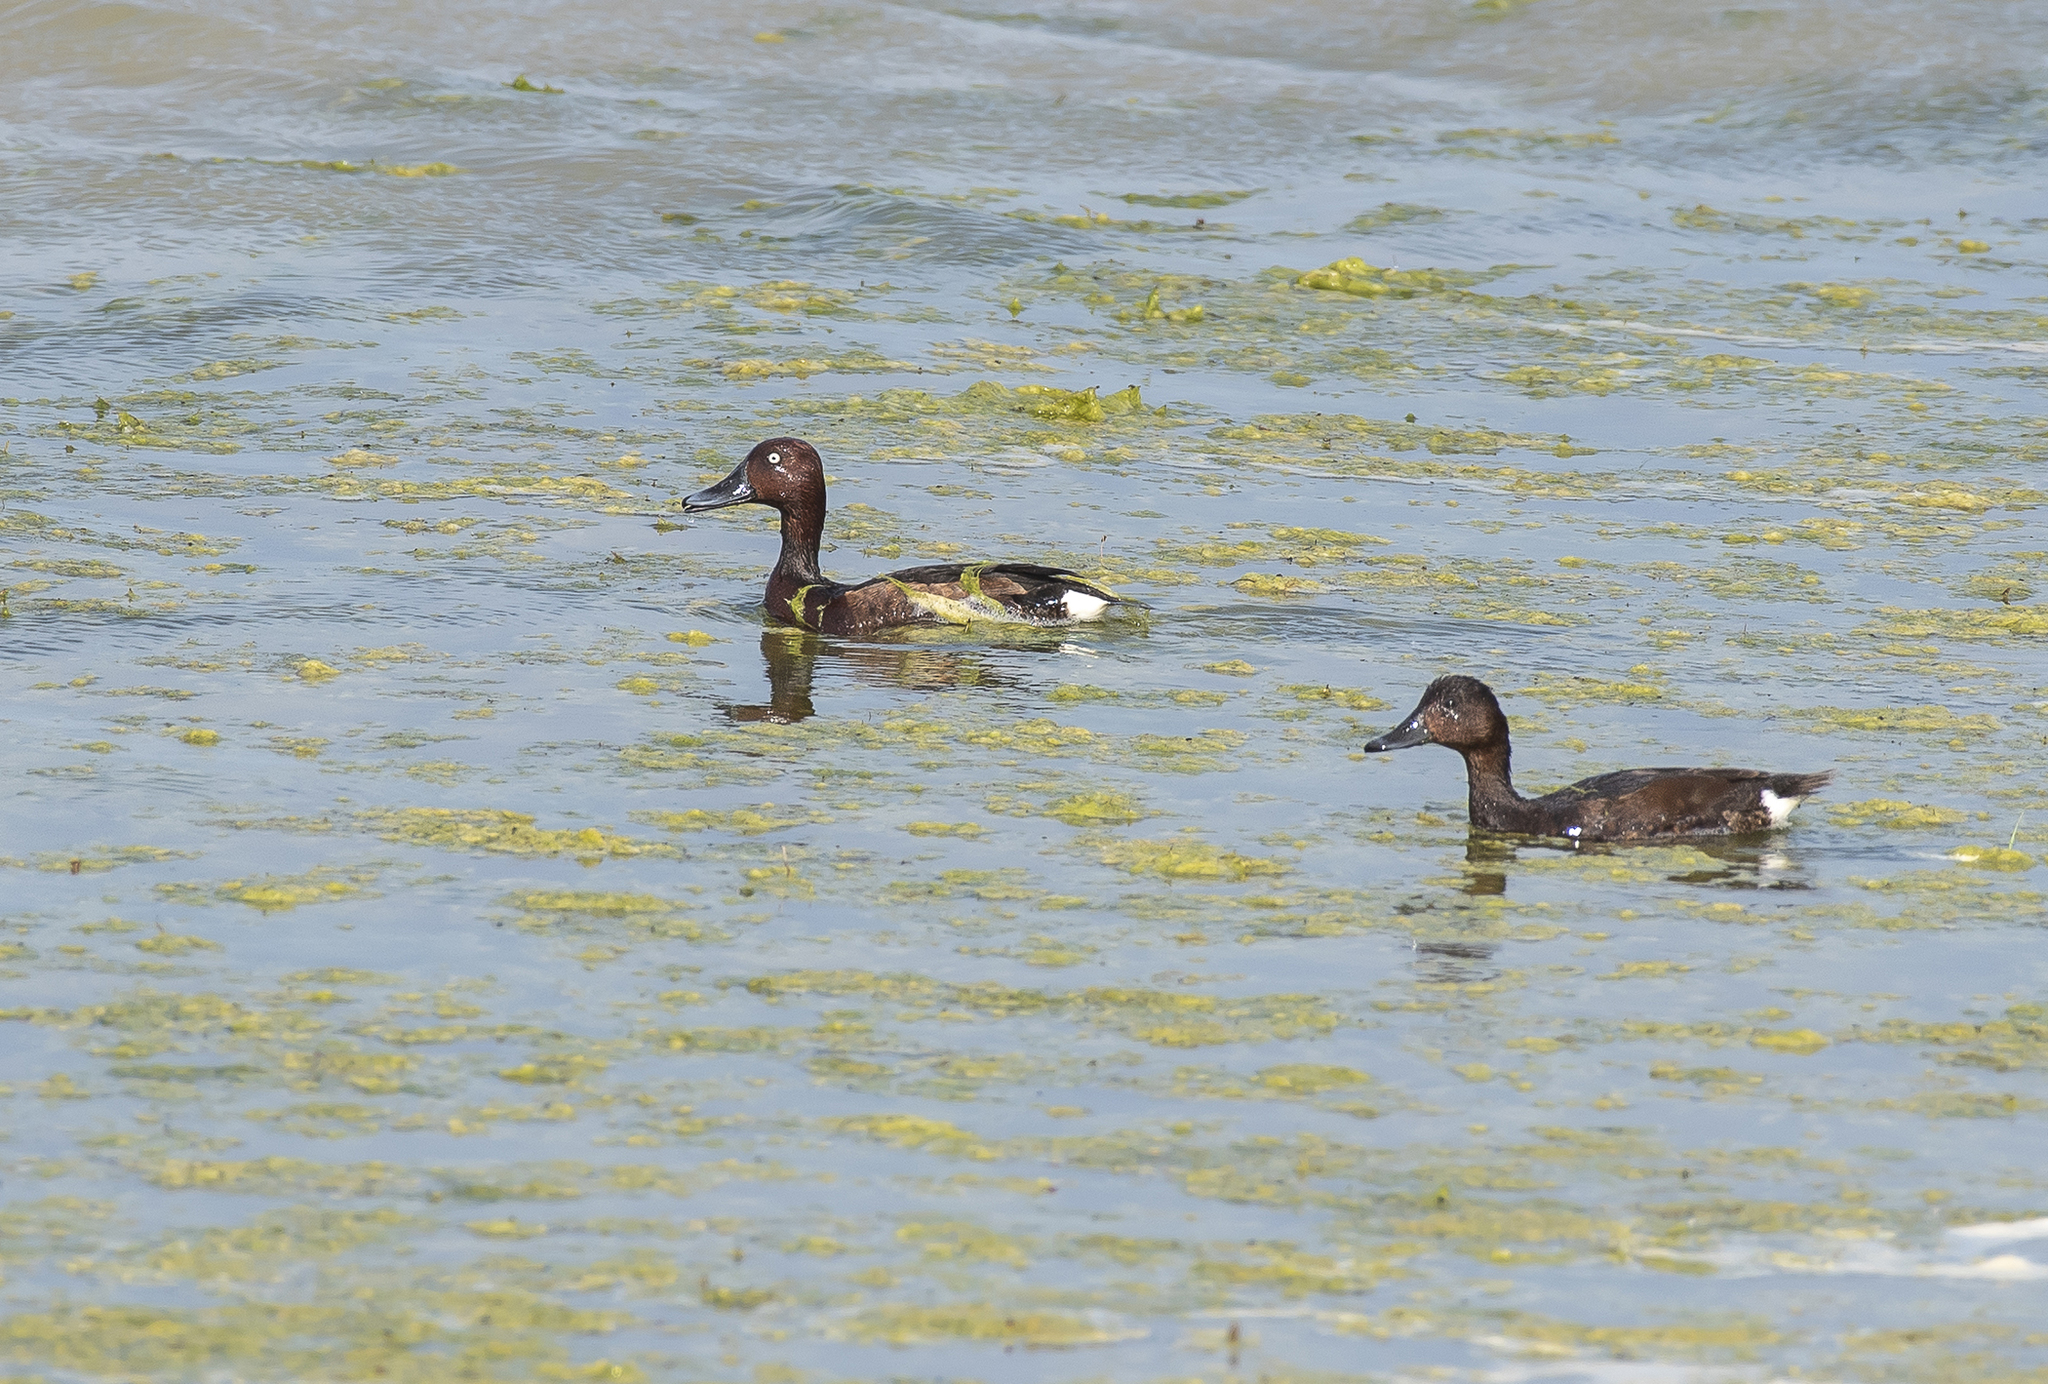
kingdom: Animalia
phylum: Chordata
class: Aves
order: Anseriformes
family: Anatidae
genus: Aythya
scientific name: Aythya nyroca
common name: Ferruginous duck
